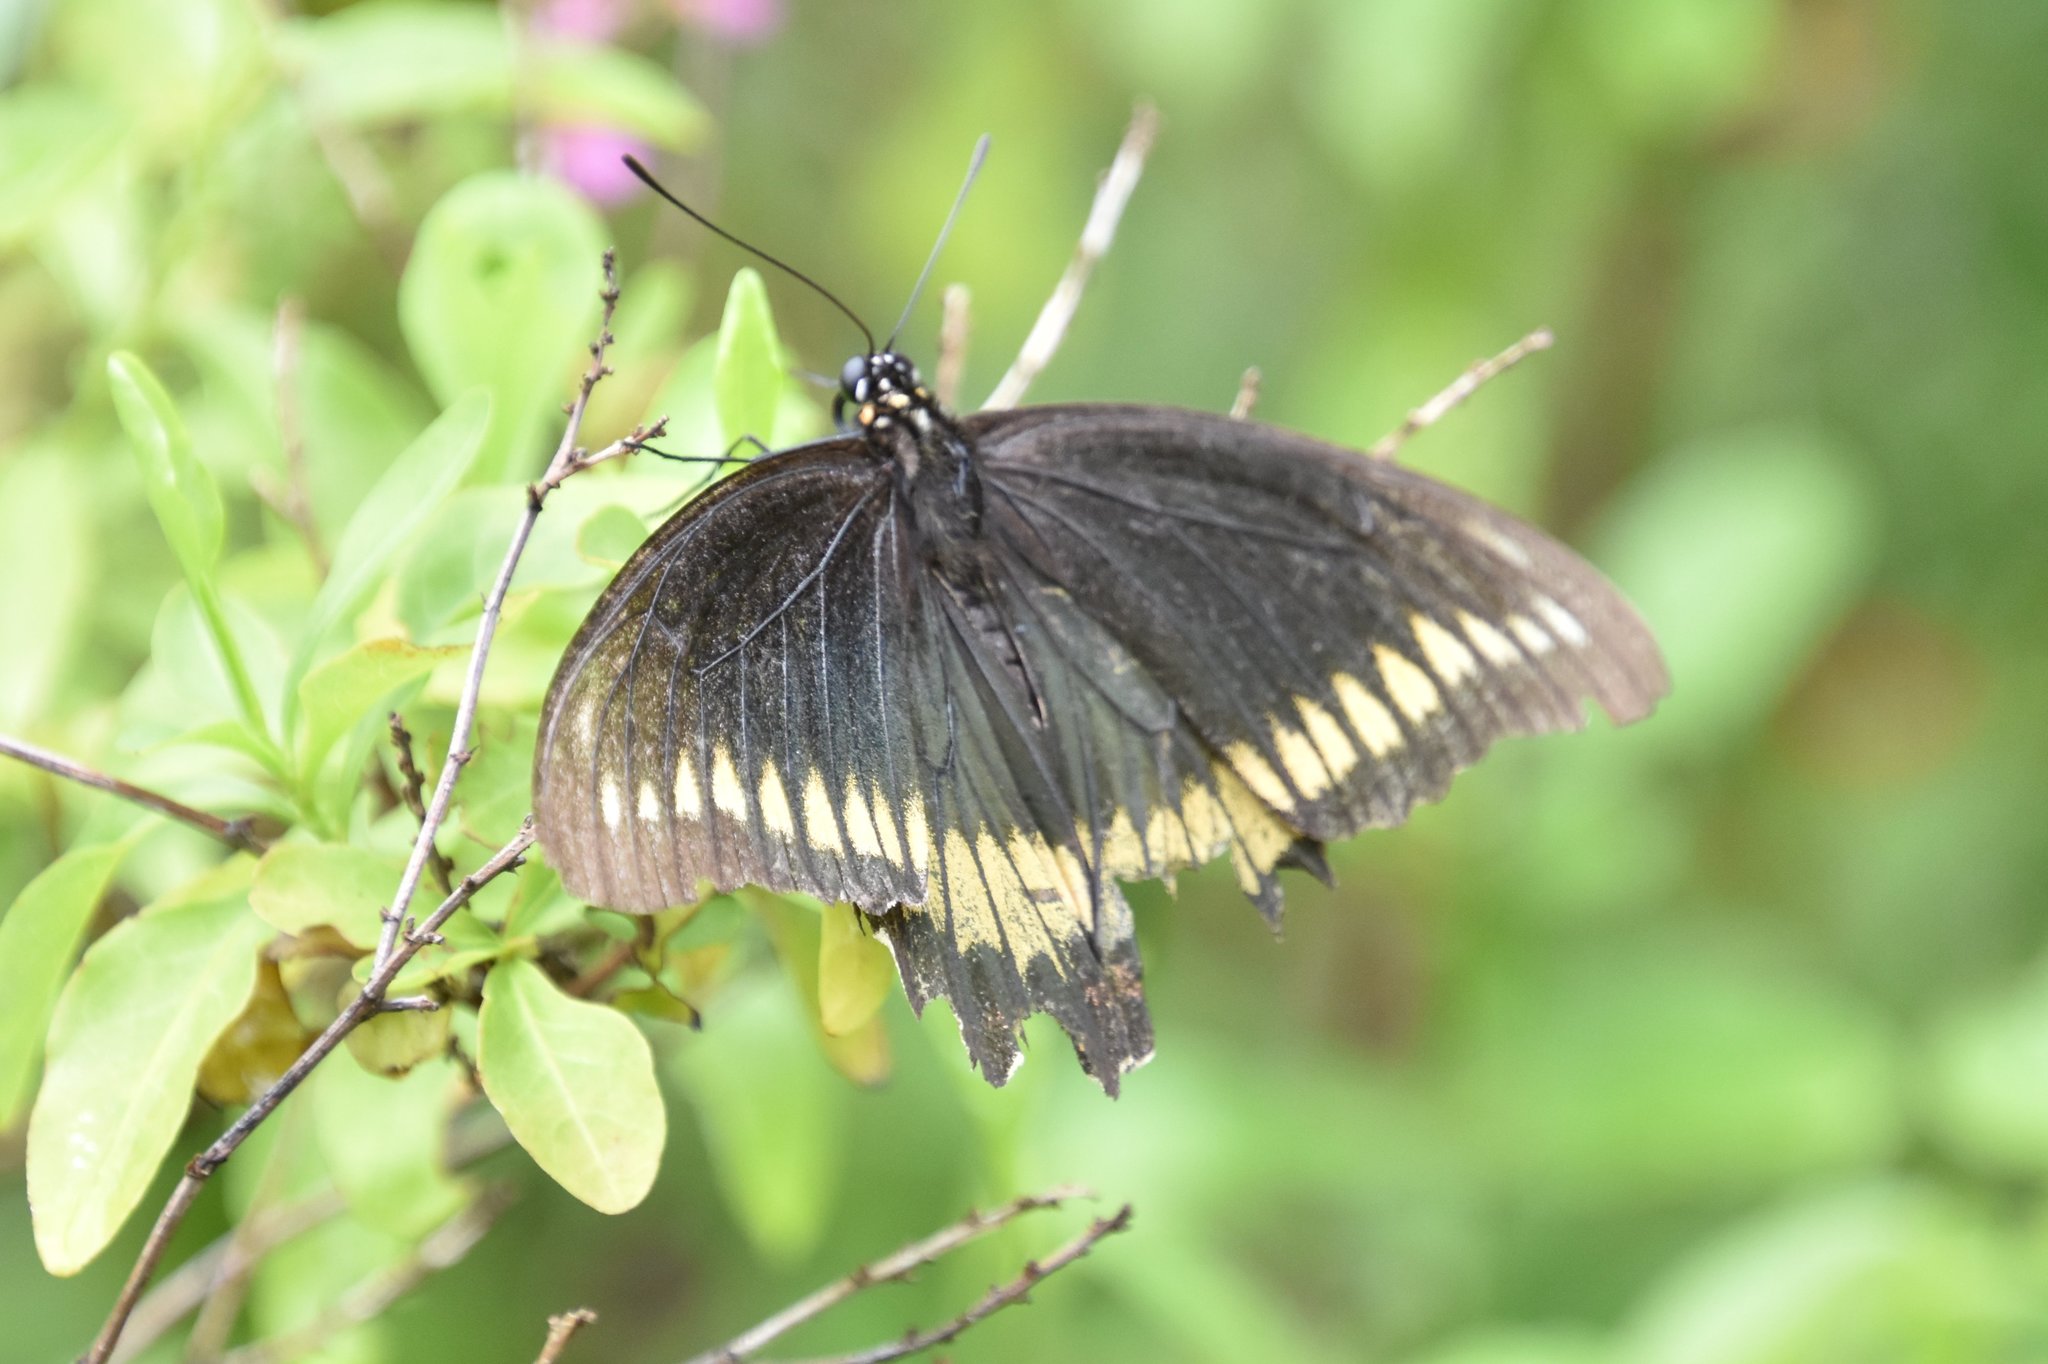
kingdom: Animalia
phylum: Arthropoda
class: Insecta
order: Lepidoptera
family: Papilionidae
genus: Battus
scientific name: Battus polydamas
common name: Polydamas swallowtail
